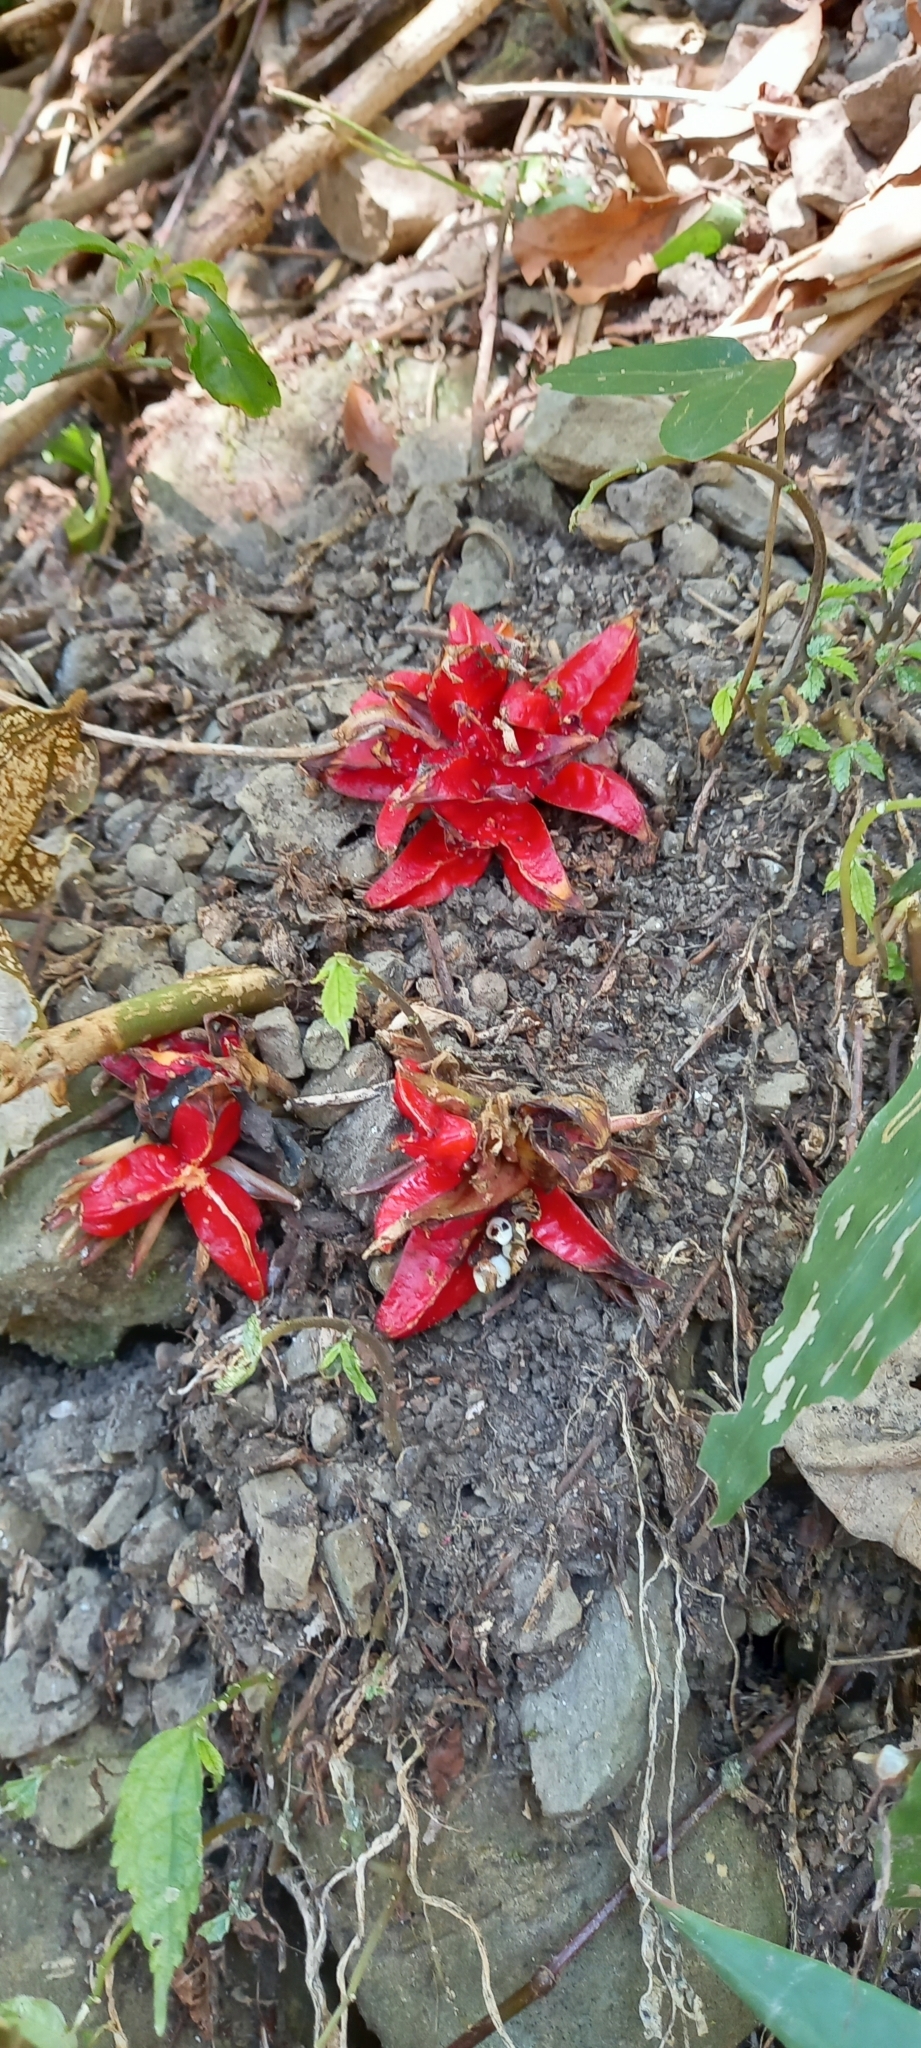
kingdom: Plantae
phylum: Tracheophyta
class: Liliopsida
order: Zingiberales
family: Zingiberaceae
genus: Zingiber
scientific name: Zingiber kawagoii
